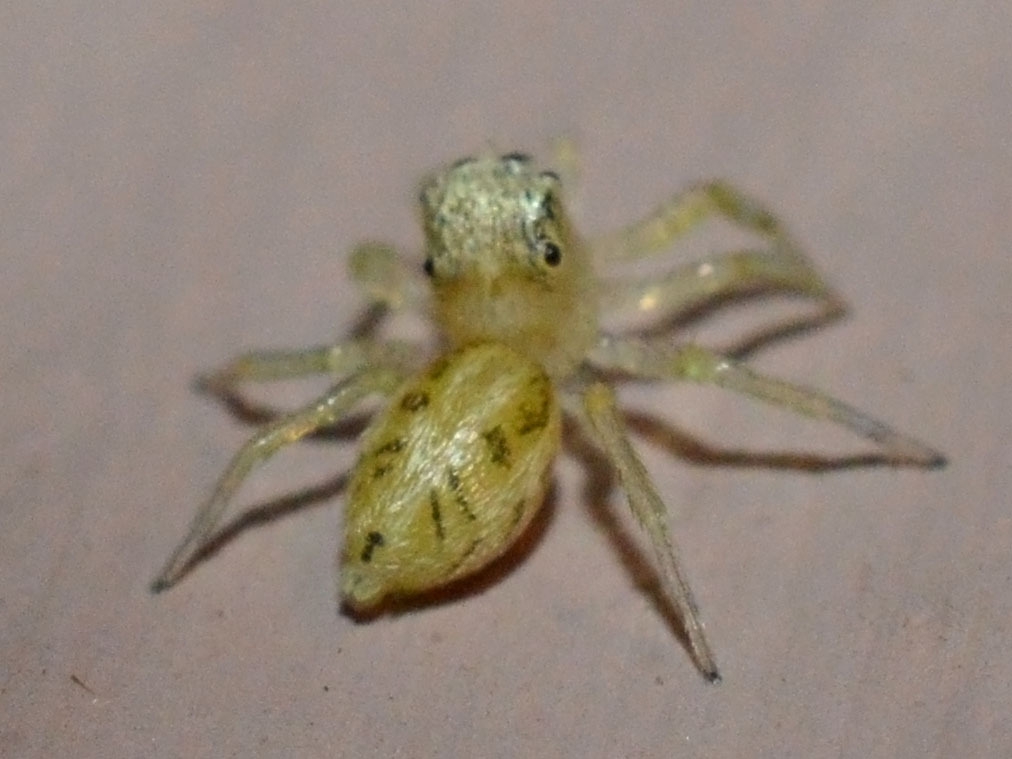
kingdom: Animalia
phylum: Arthropoda
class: Arachnida
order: Araneae
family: Salticidae
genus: Phintella
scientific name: Phintella castriesiana
